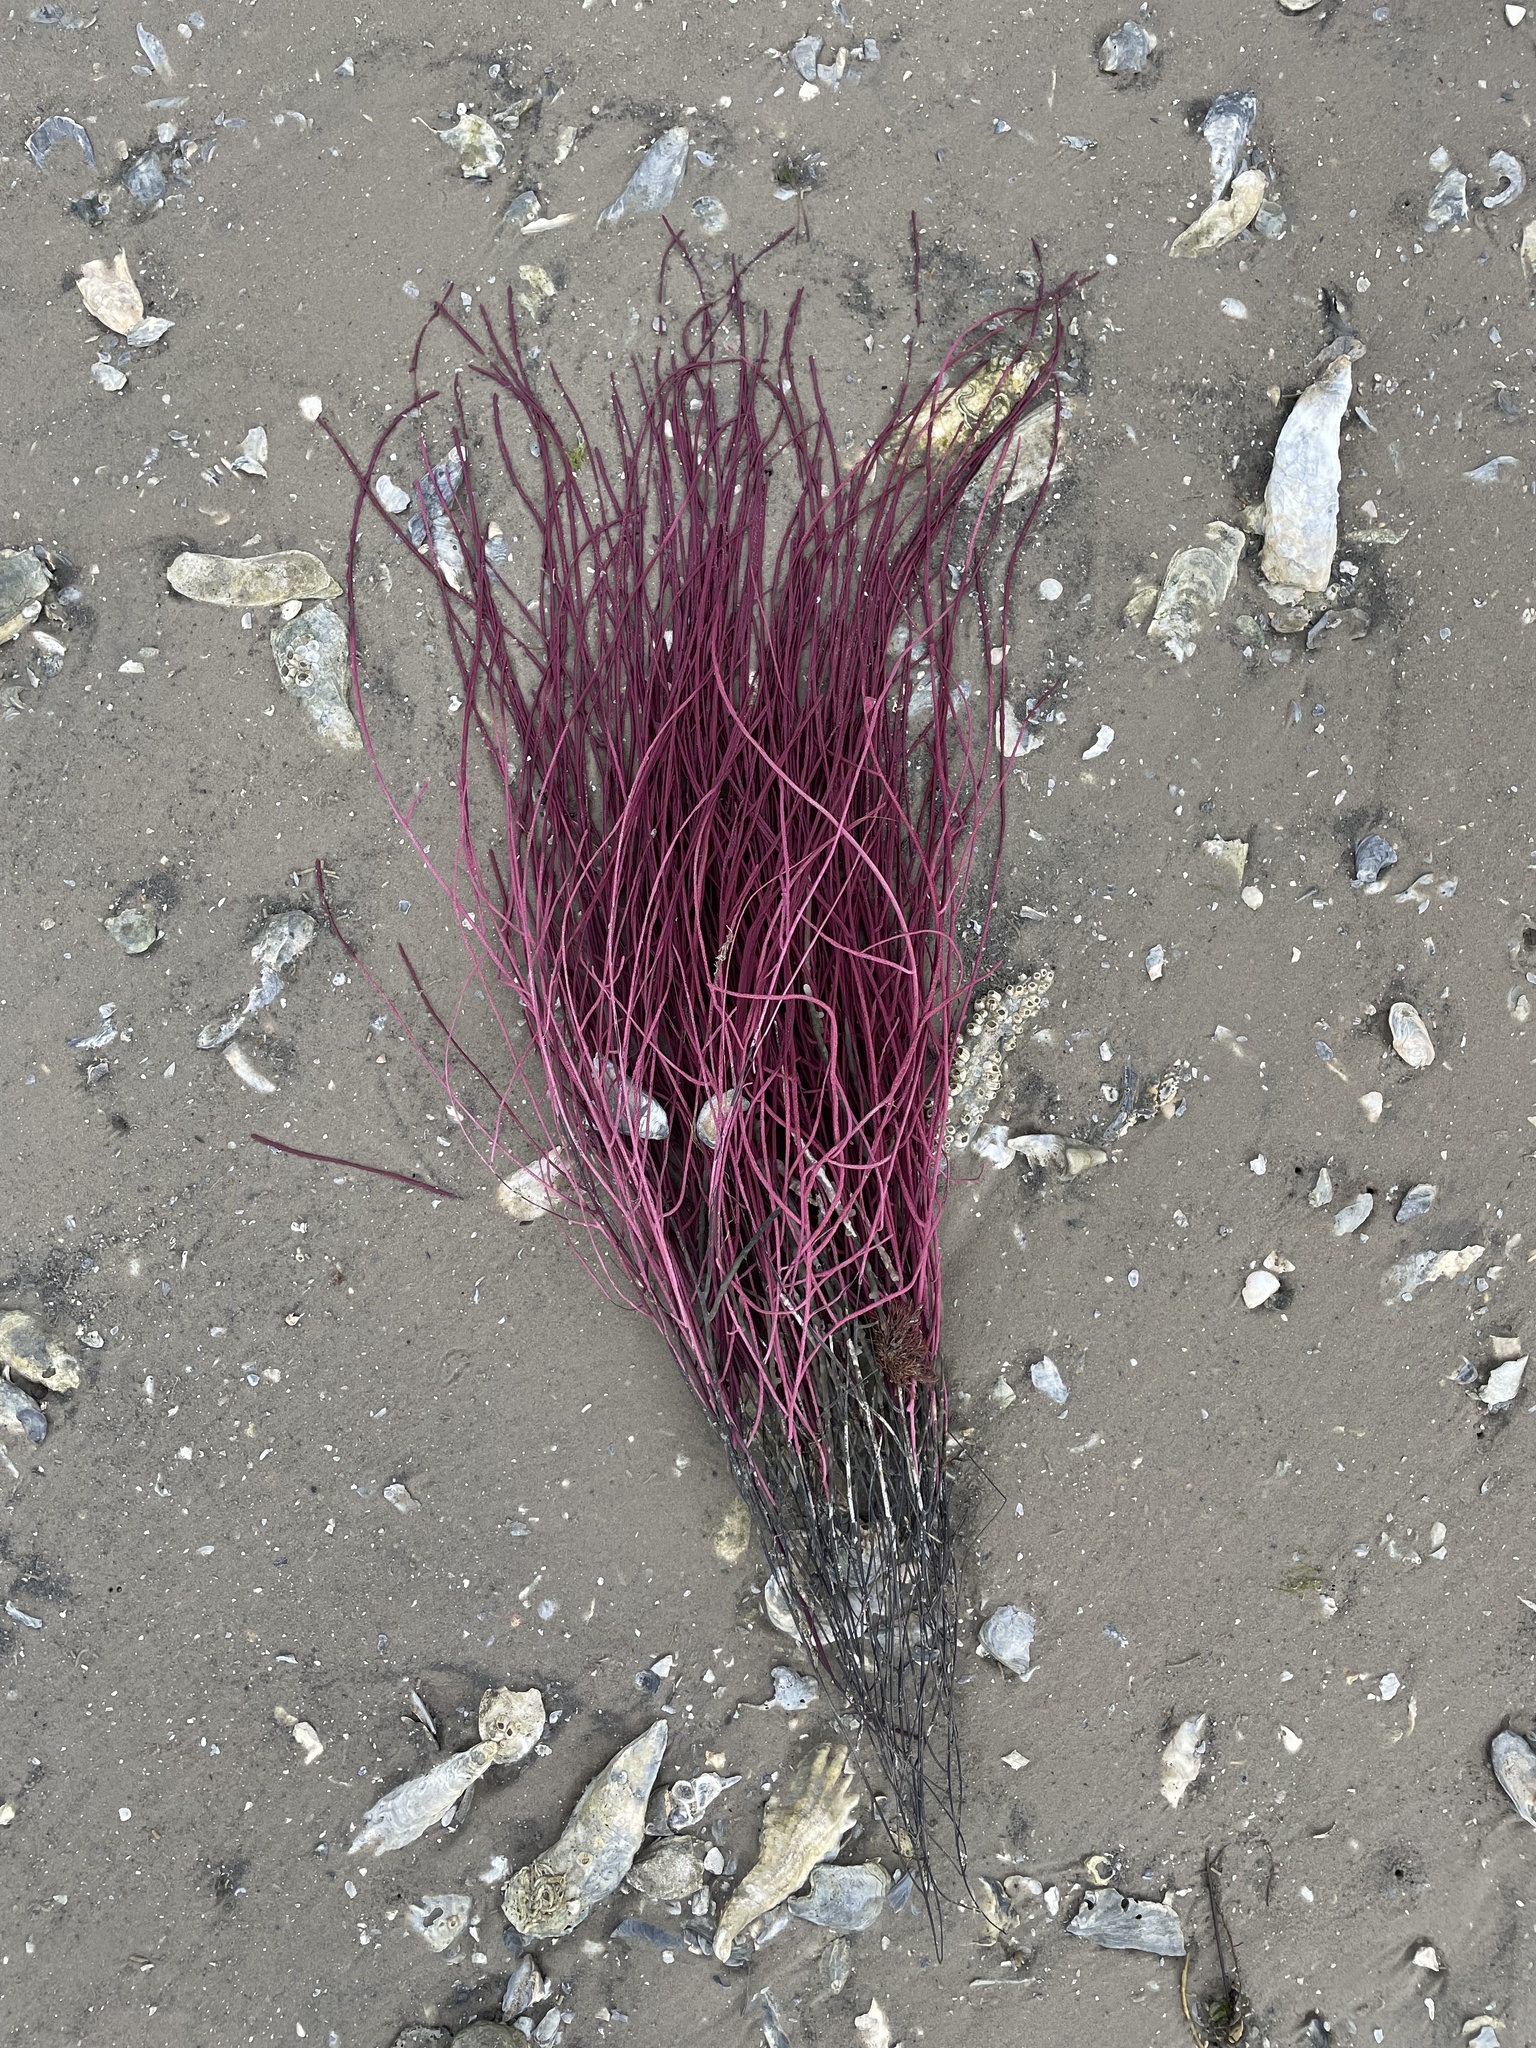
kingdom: Animalia
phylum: Cnidaria
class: Anthozoa
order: Malacalcyonacea
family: Gorgoniidae
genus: Leptogorgia
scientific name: Leptogorgia virgulata
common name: Colorful sea whip
